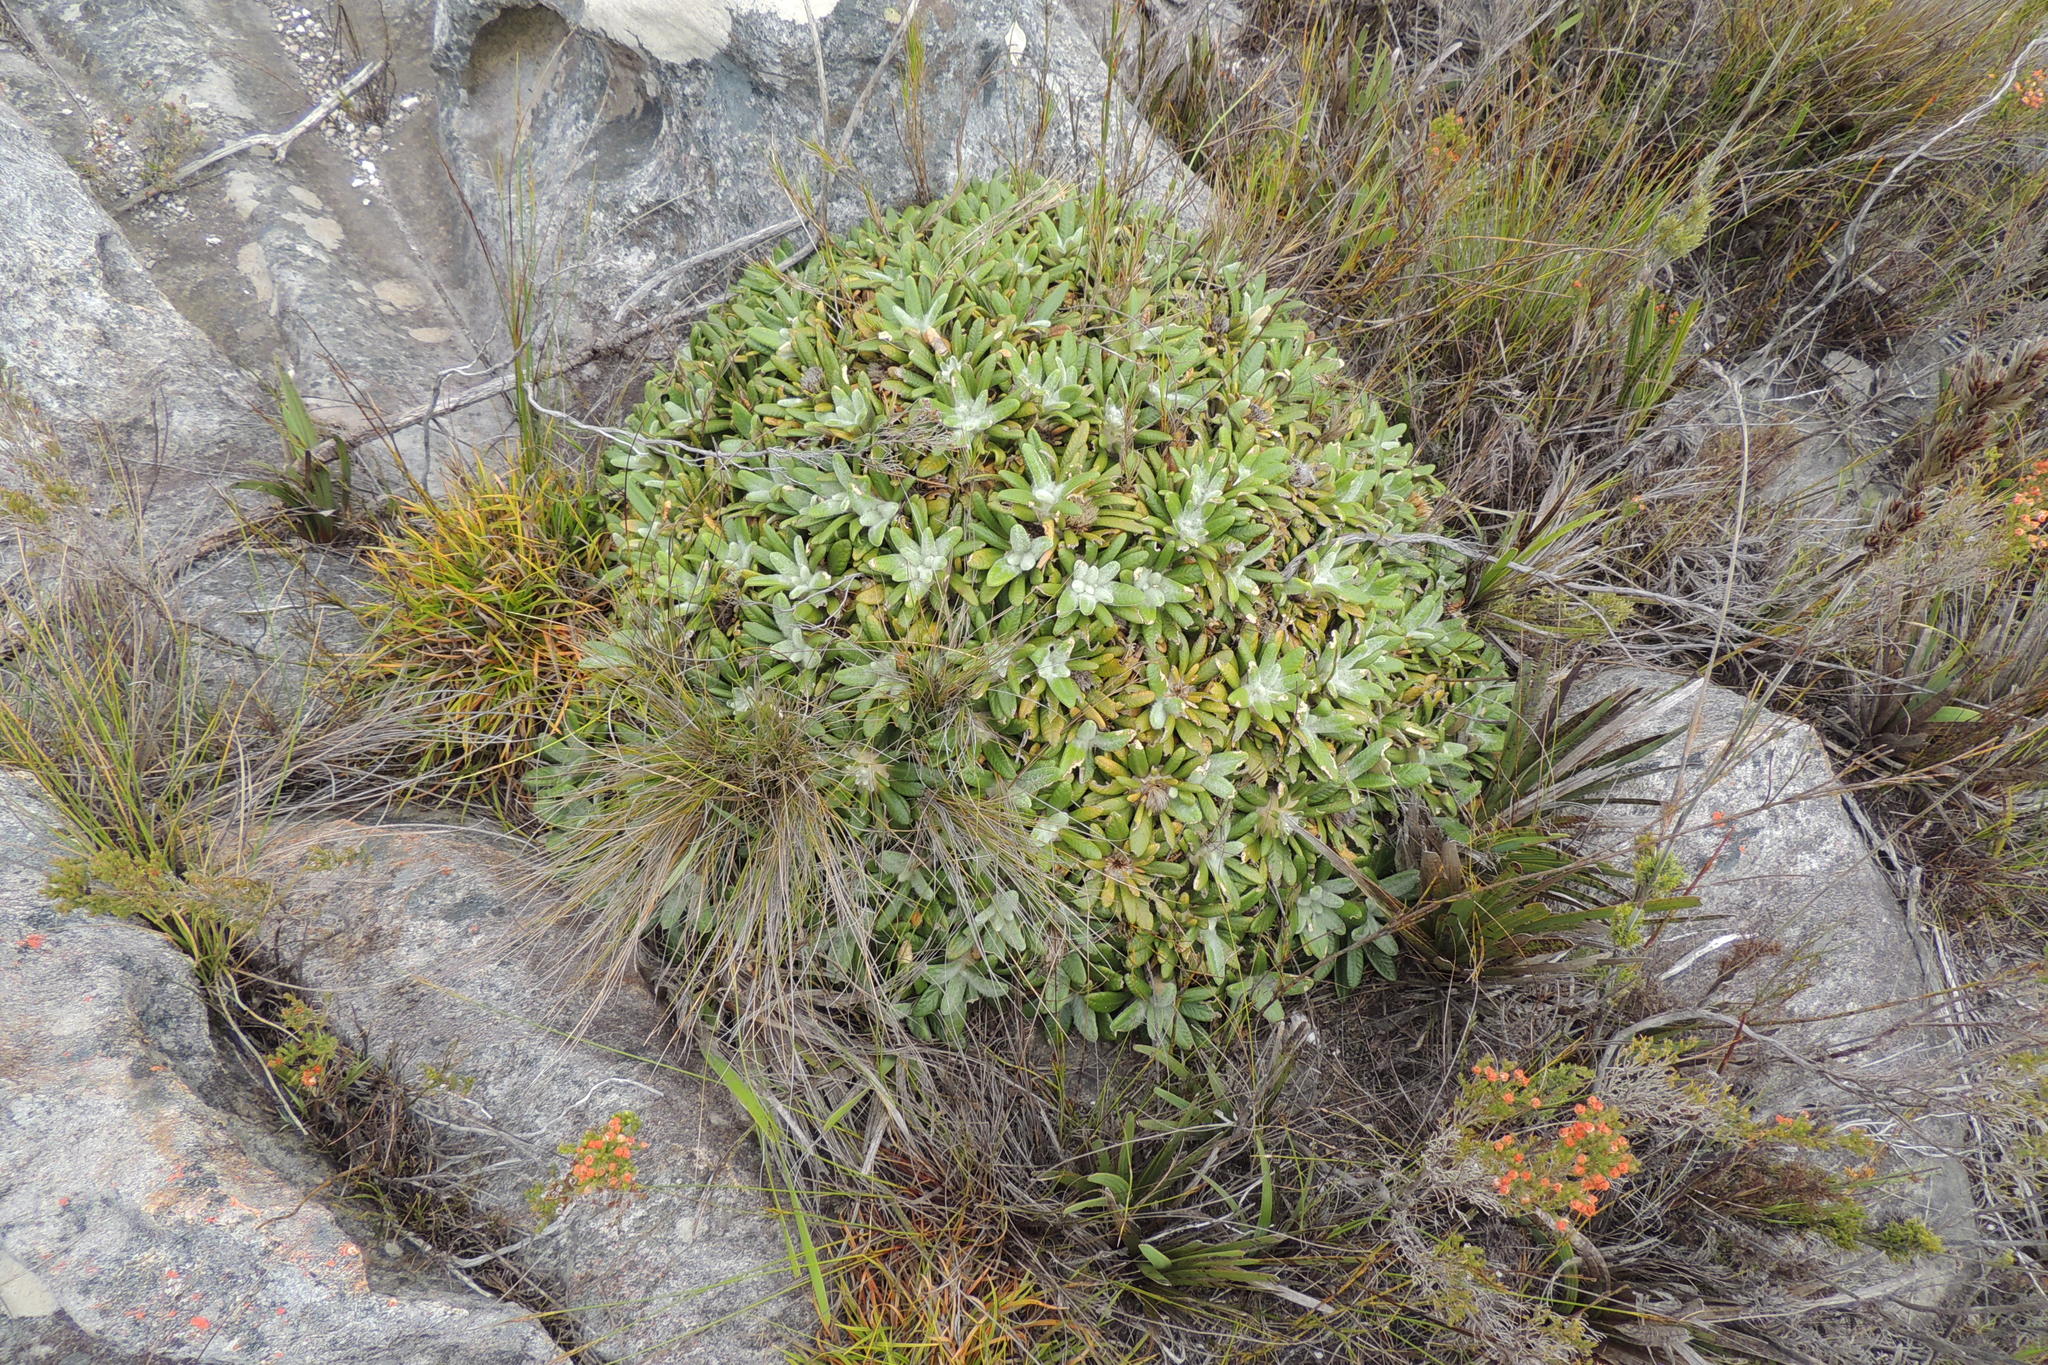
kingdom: Plantae
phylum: Tracheophyta
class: Magnoliopsida
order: Asterales
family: Asteraceae
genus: Oldenburgia
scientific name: Oldenburgia paradoxa
